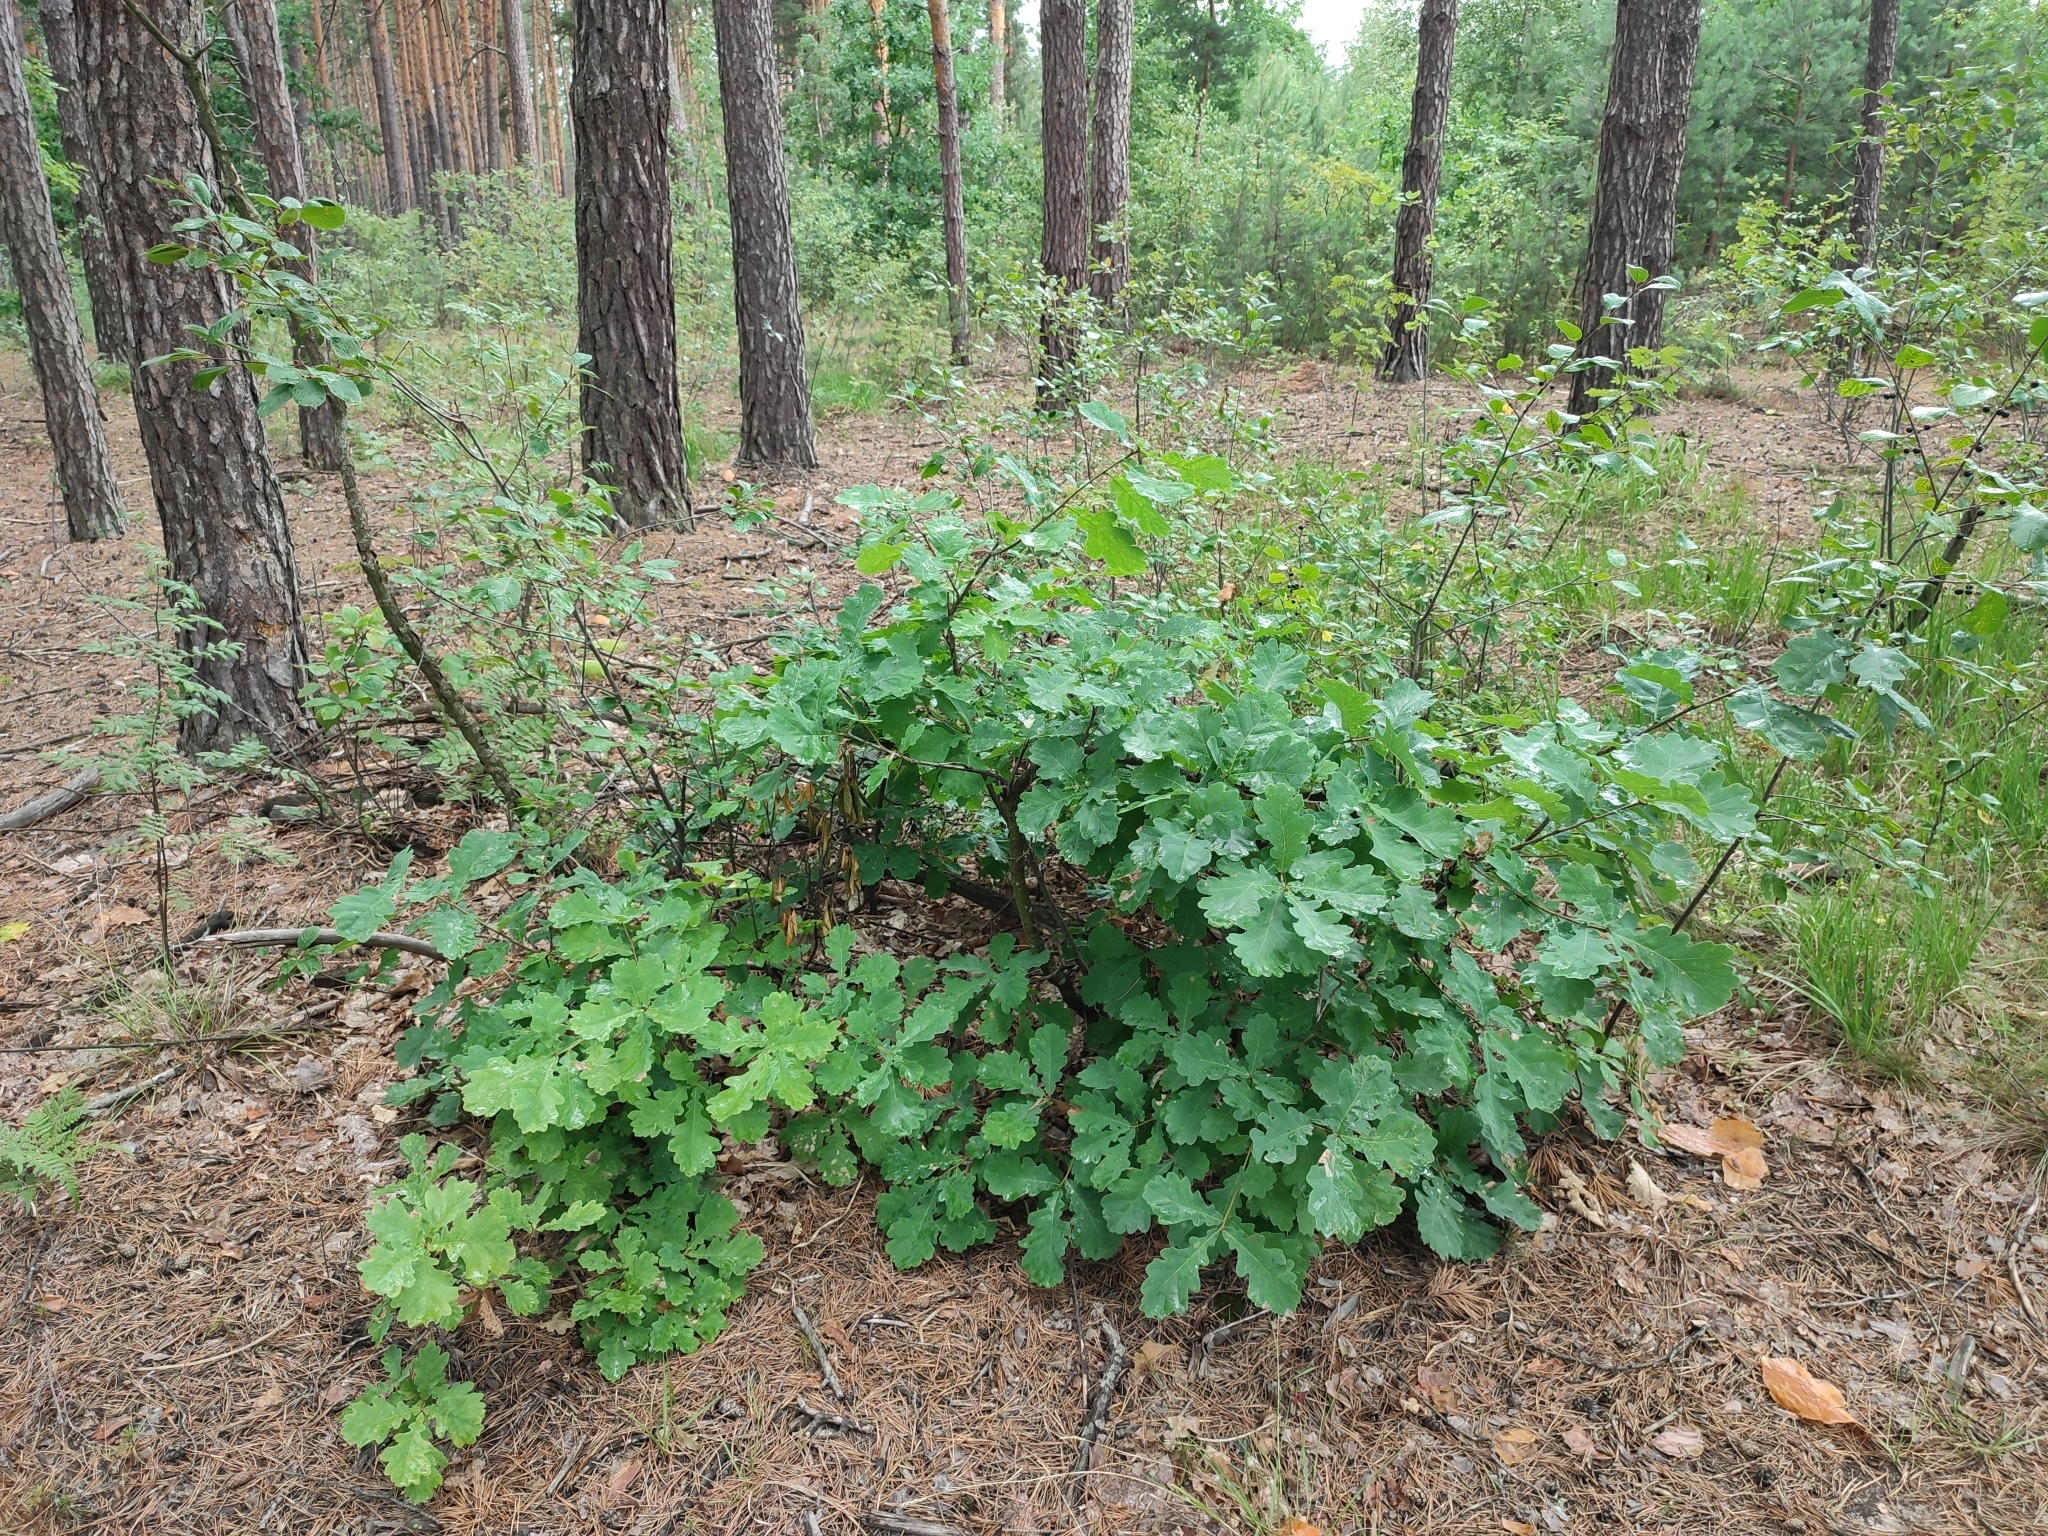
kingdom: Plantae
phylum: Tracheophyta
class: Magnoliopsida
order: Fagales
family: Fagaceae
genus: Quercus
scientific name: Quercus robur
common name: Pedunculate oak
